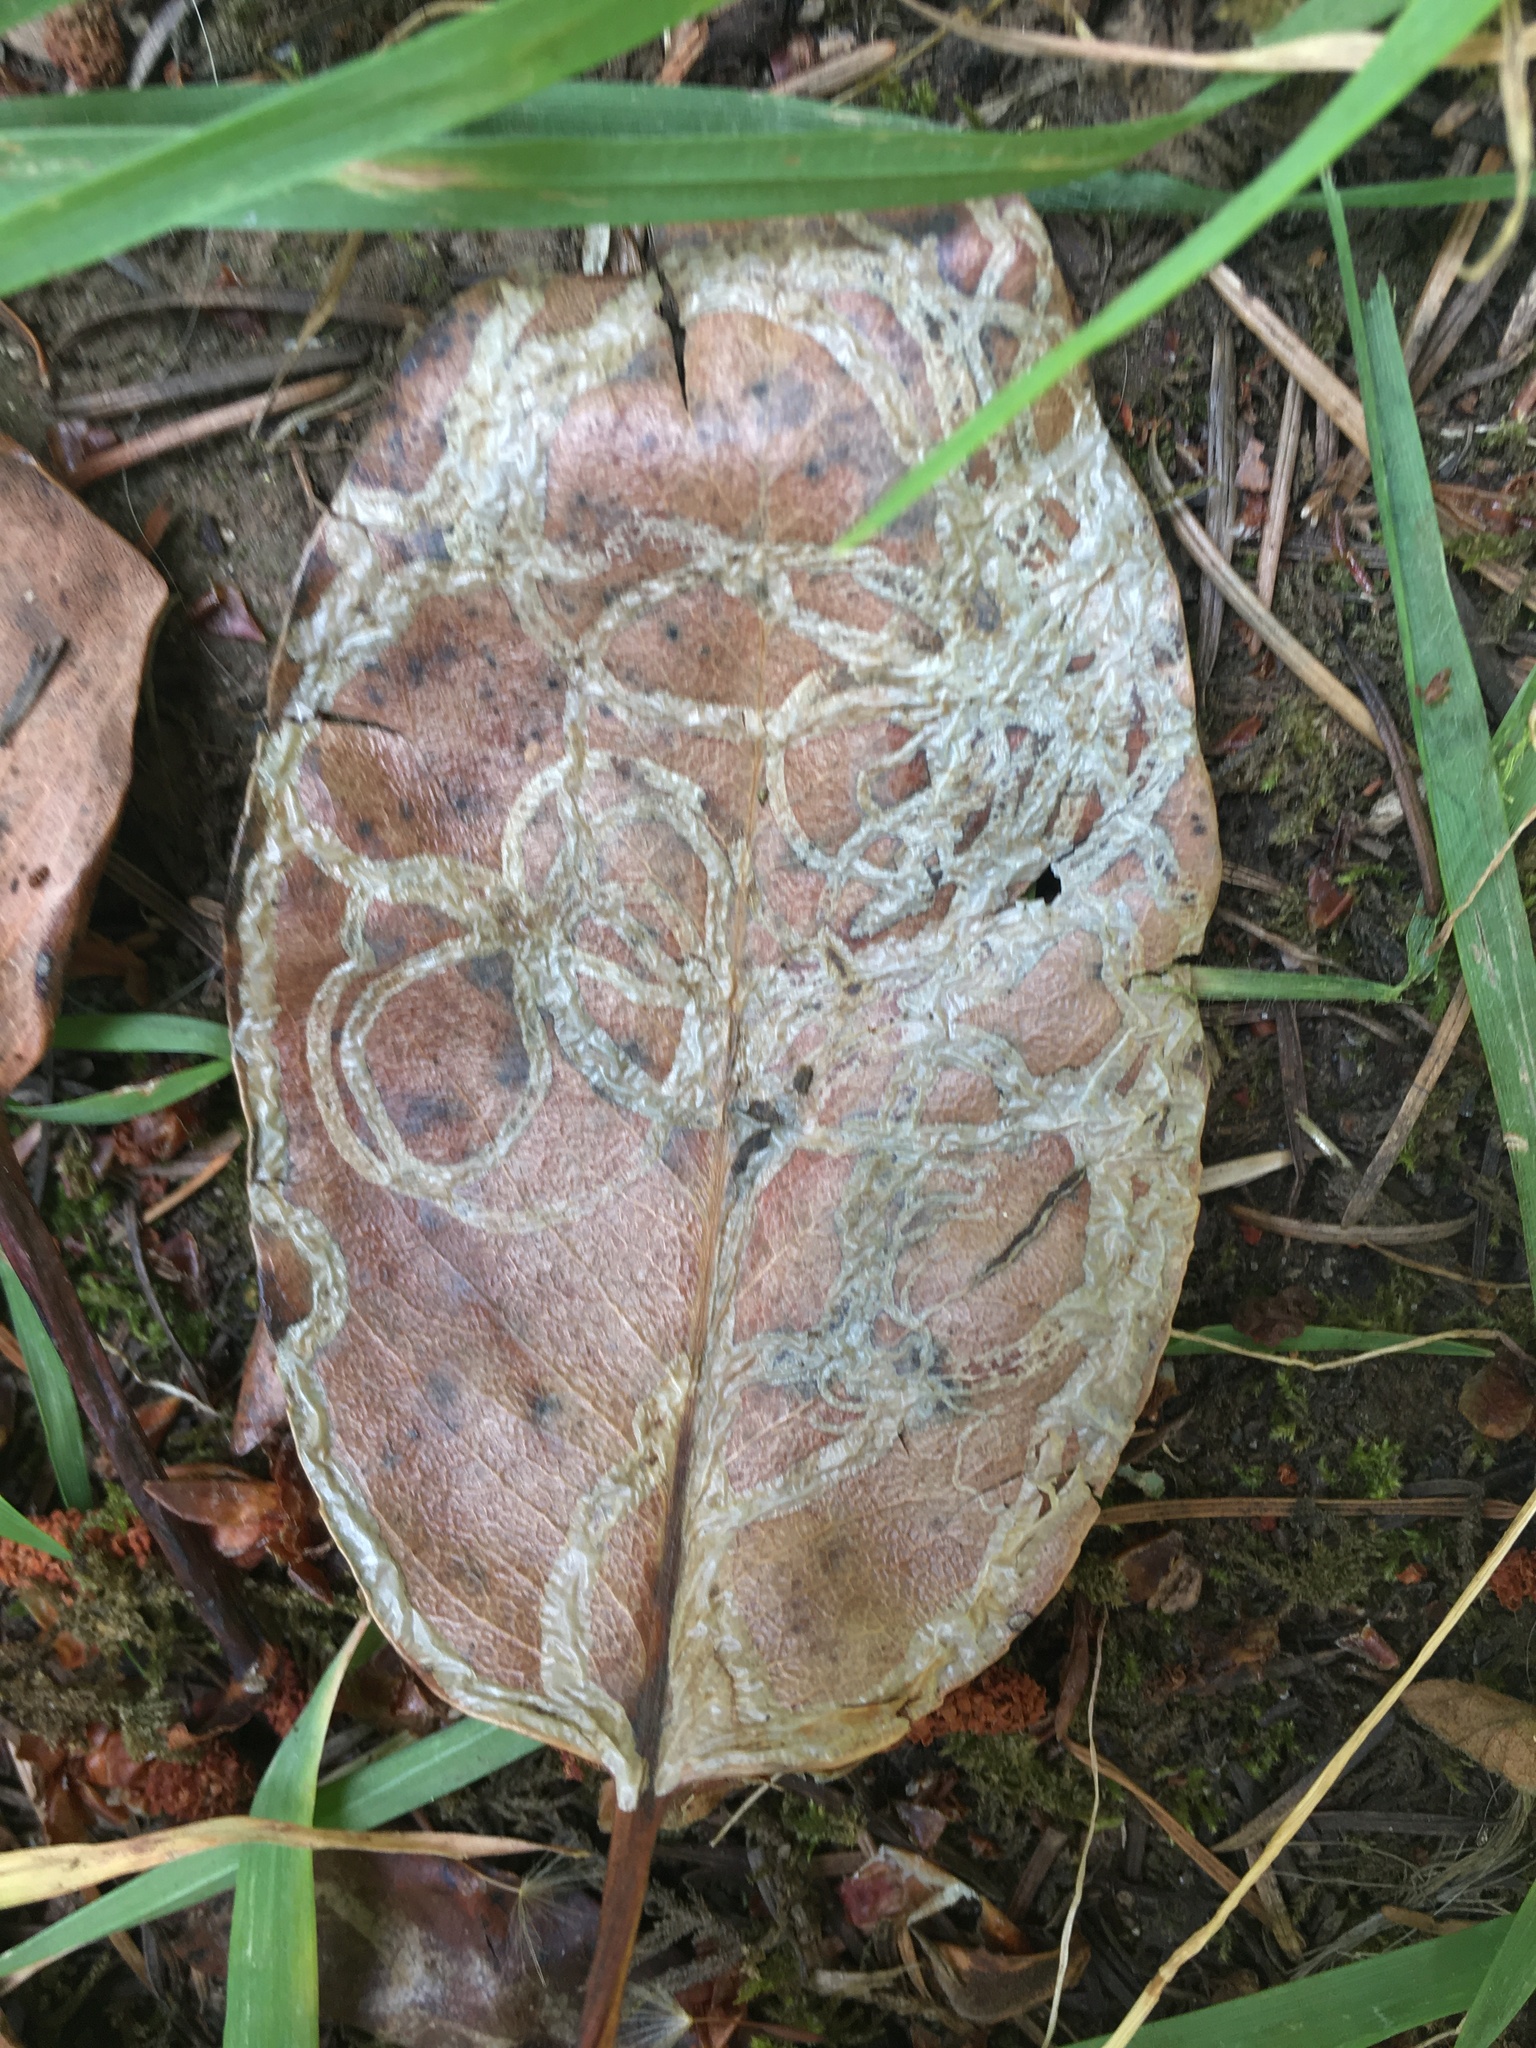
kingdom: Animalia
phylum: Arthropoda
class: Insecta
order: Lepidoptera
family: Gracillariidae
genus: Marmara
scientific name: Marmara arbutiella
